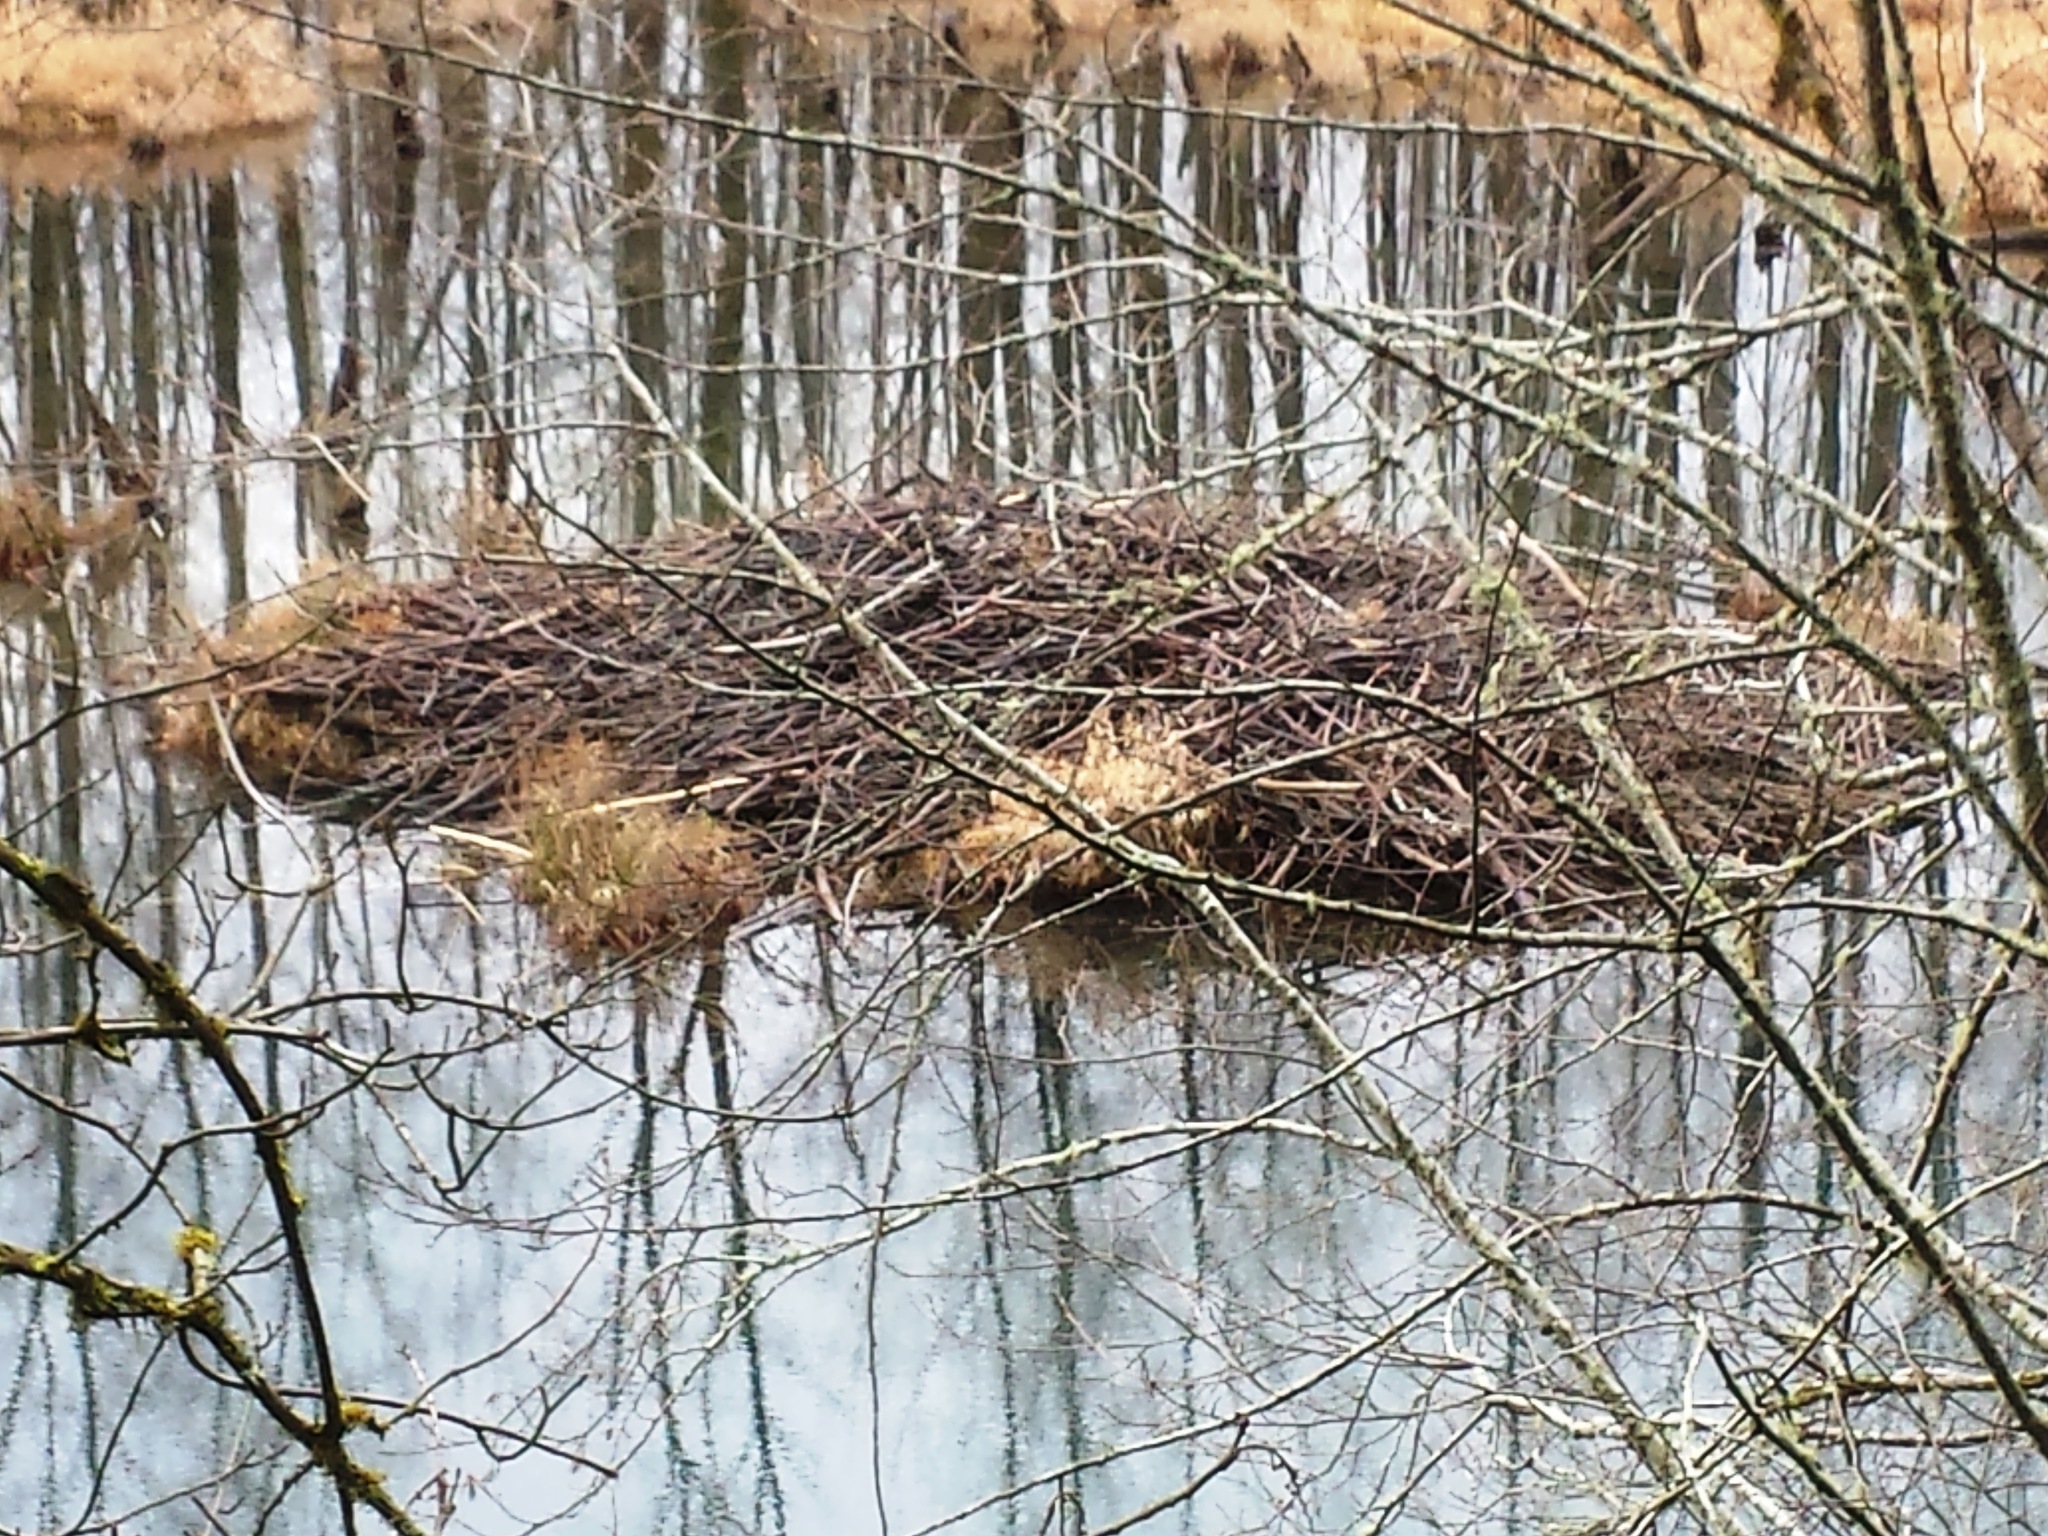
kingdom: Animalia
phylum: Chordata
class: Mammalia
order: Rodentia
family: Castoridae
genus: Castor
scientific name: Castor canadensis
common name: American beaver
